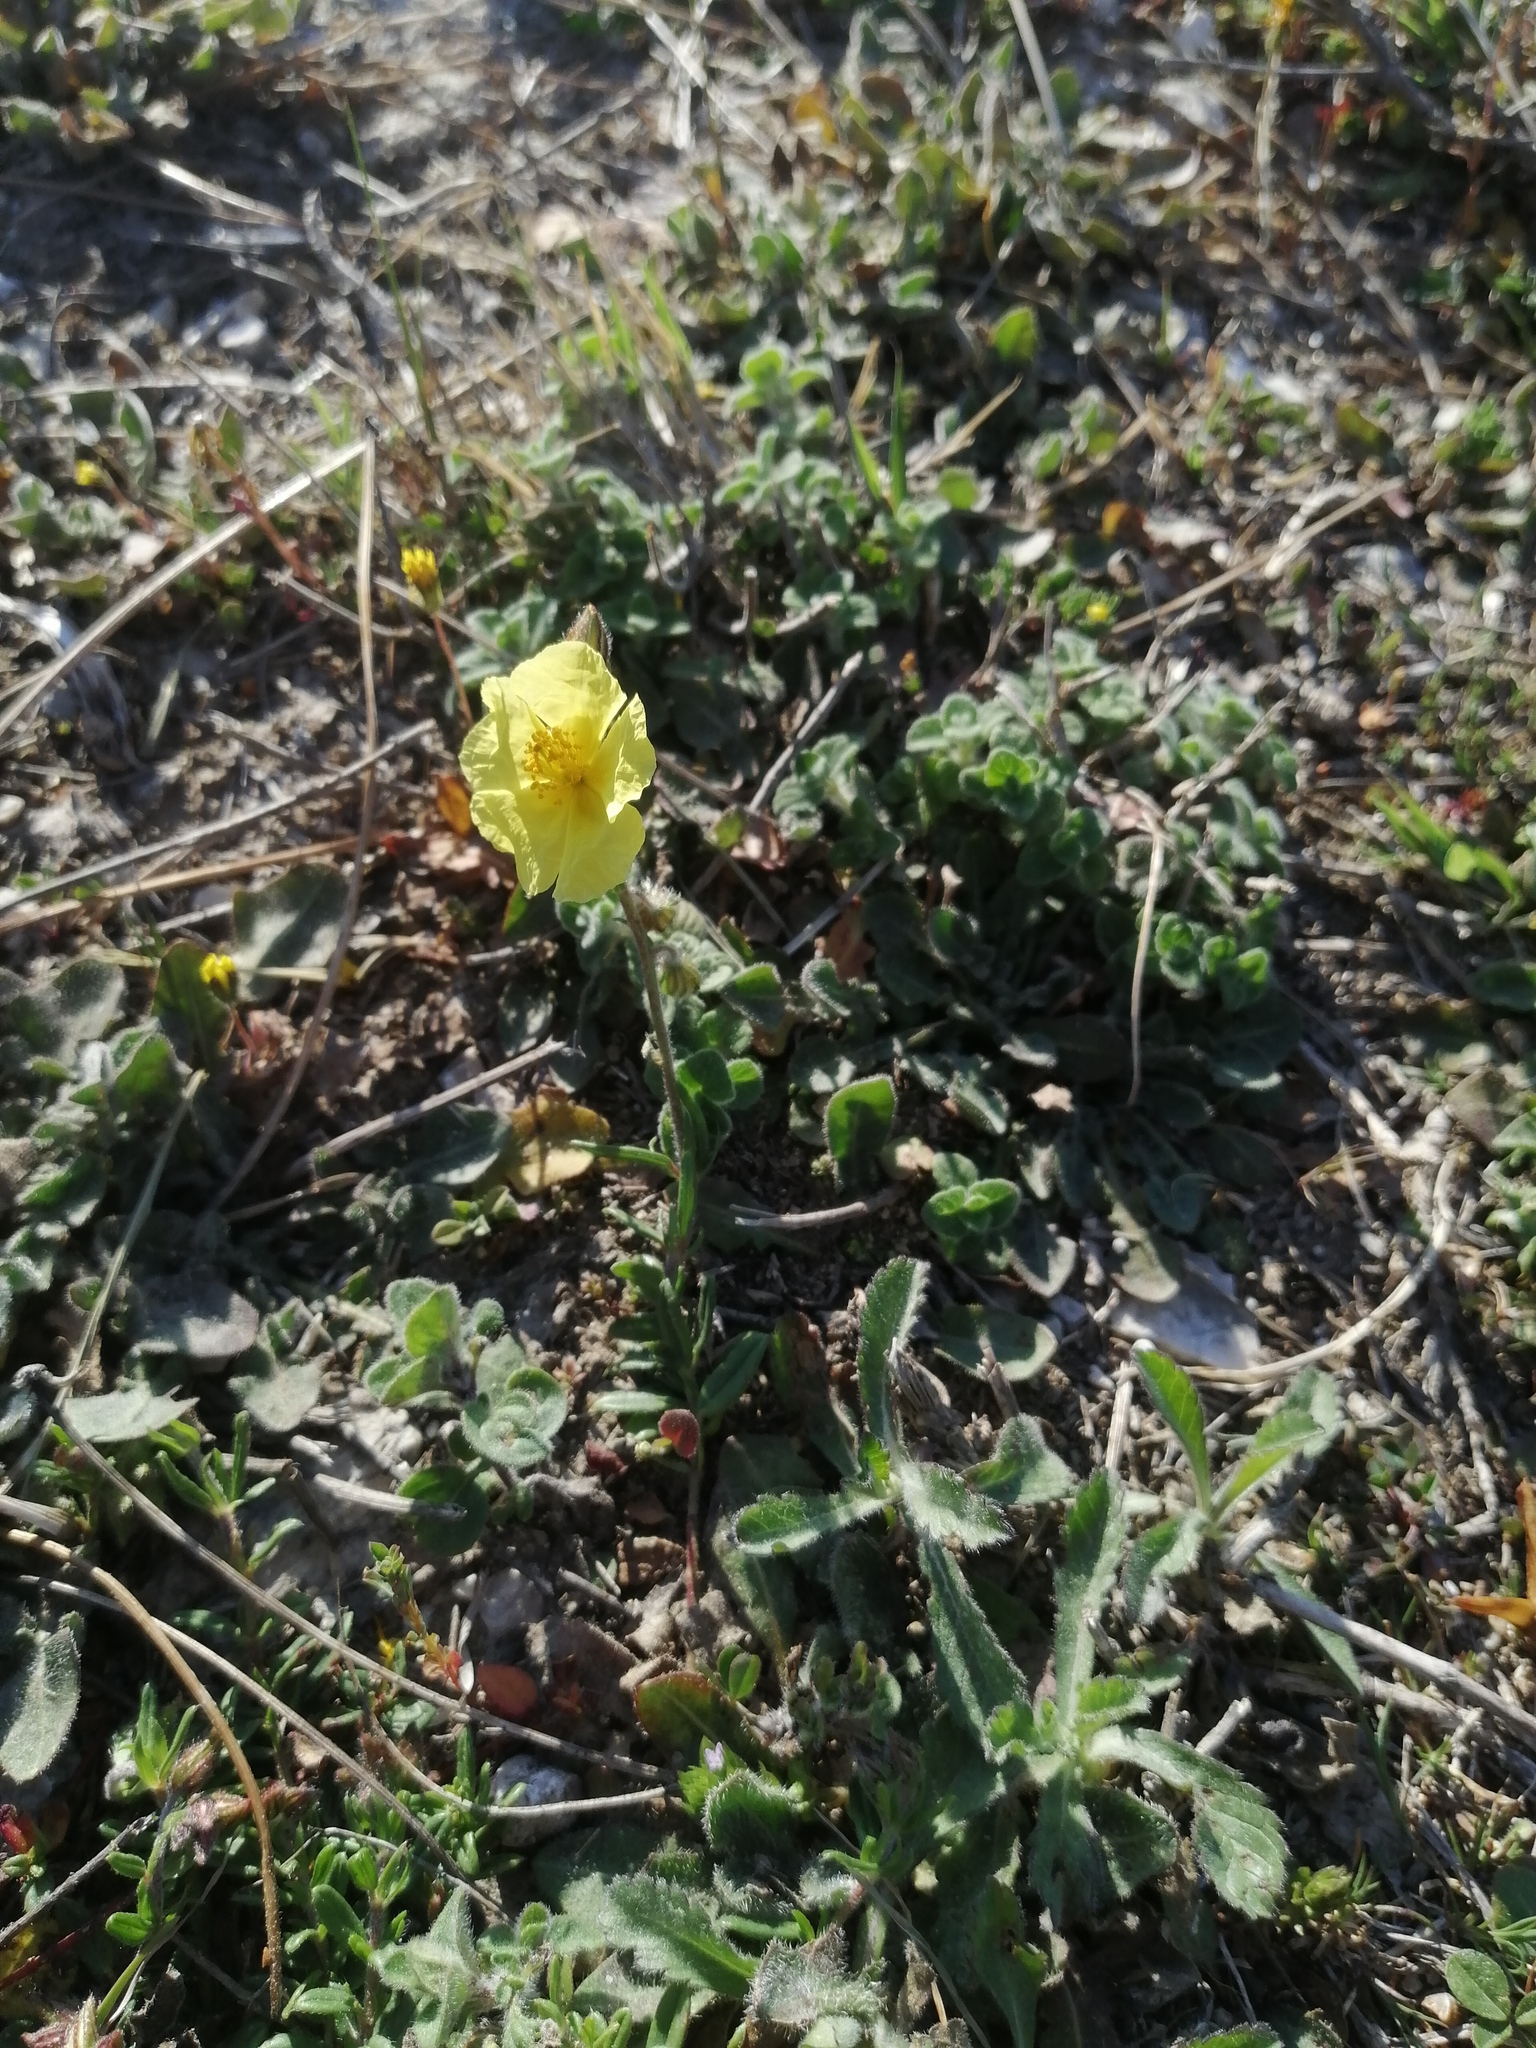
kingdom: Plantae
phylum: Tracheophyta
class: Magnoliopsida
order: Malvales
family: Cistaceae
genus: Helianthemum
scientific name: Helianthemum nummularium
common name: Common rock-rose
